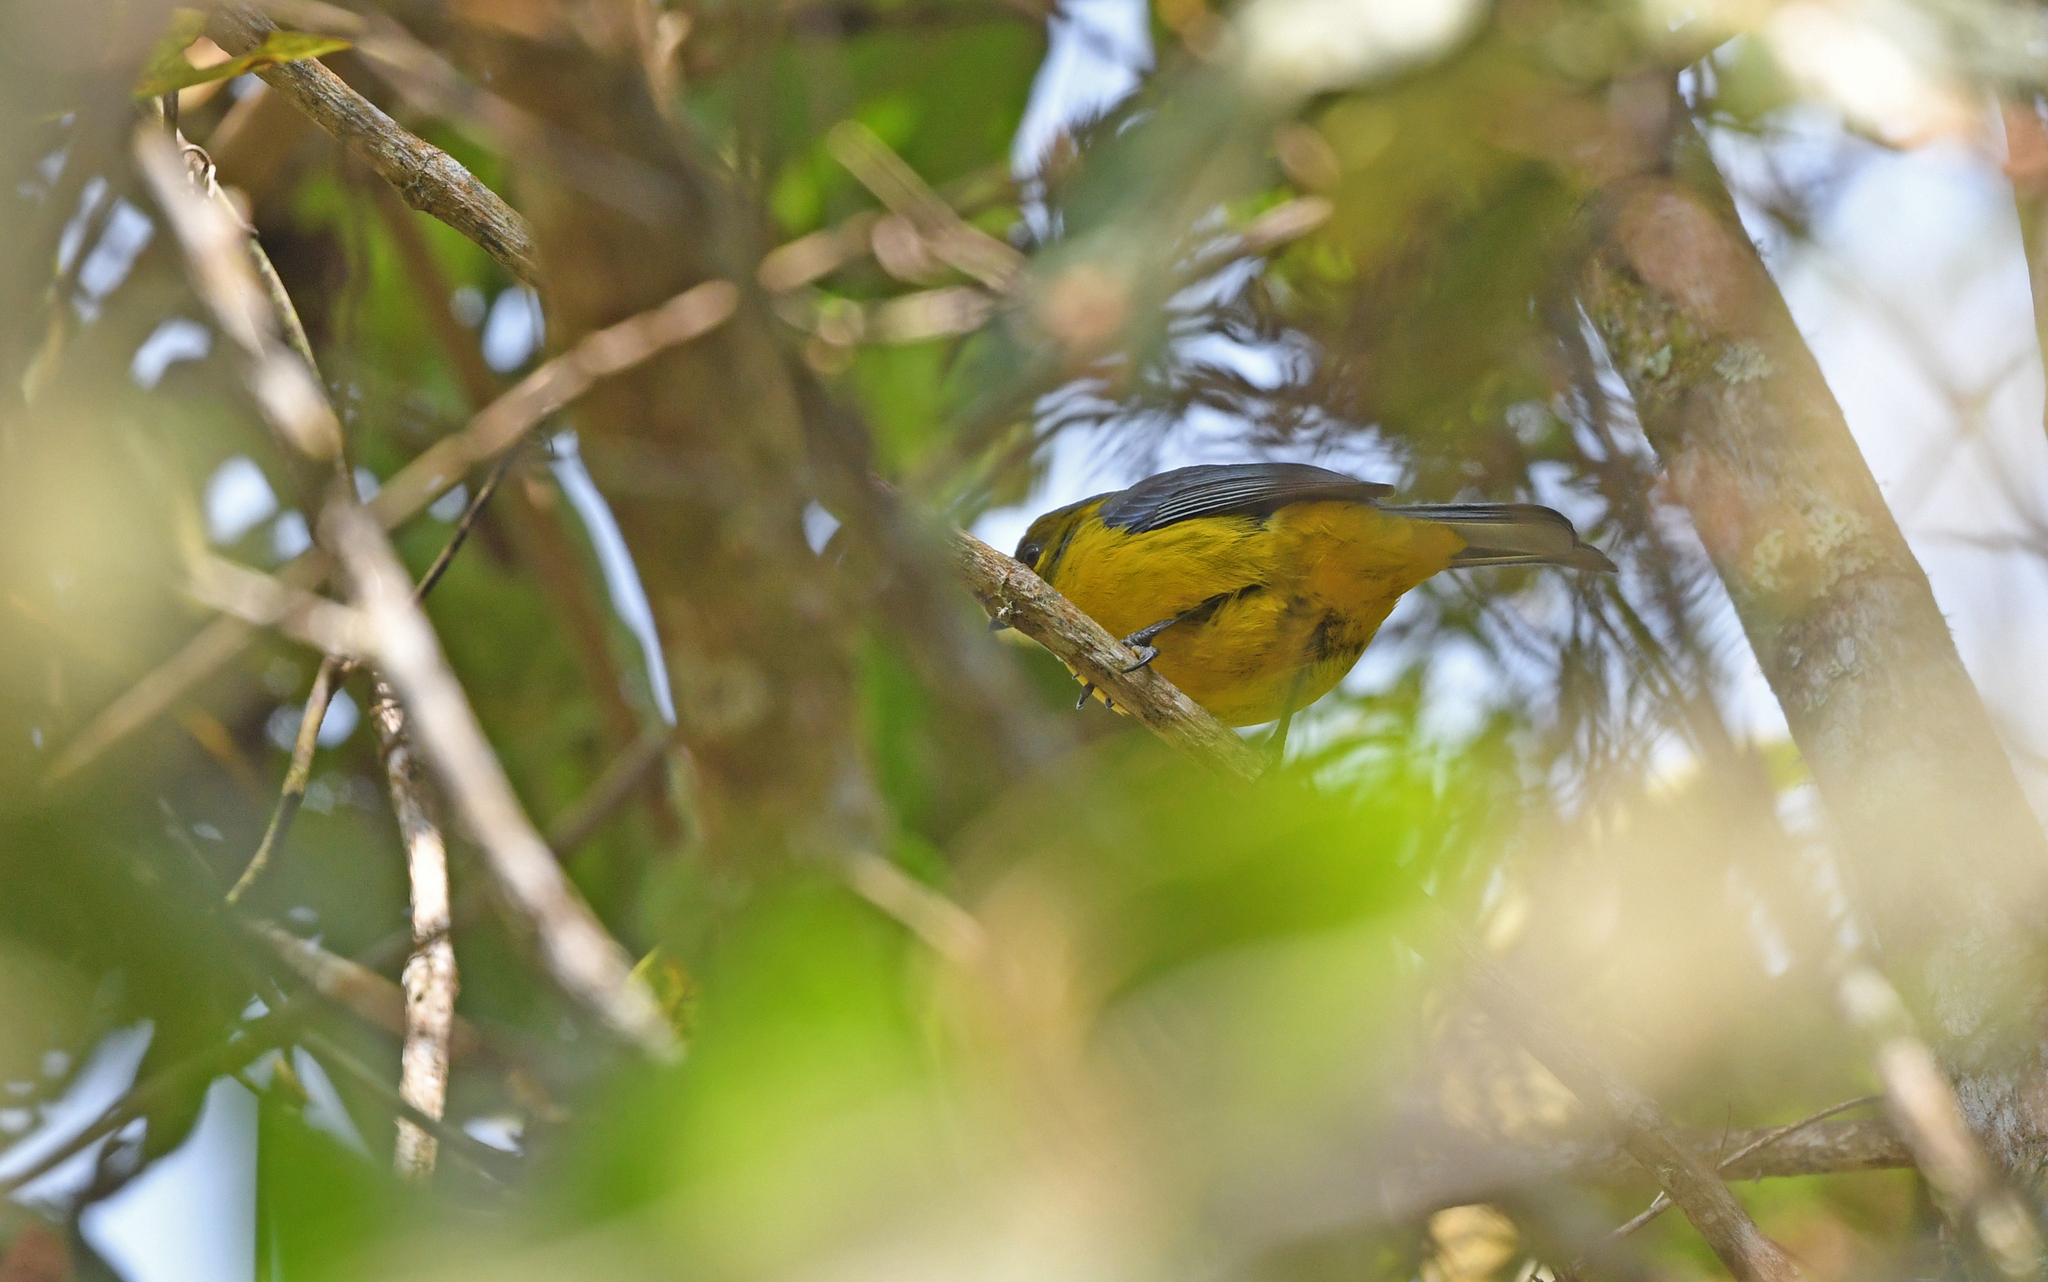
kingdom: Animalia
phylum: Chordata
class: Aves
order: Passeriformes
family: Thraupidae
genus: Anisognathus
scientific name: Anisognathus lacrymosus
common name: Lacrimose mountain-tanager
